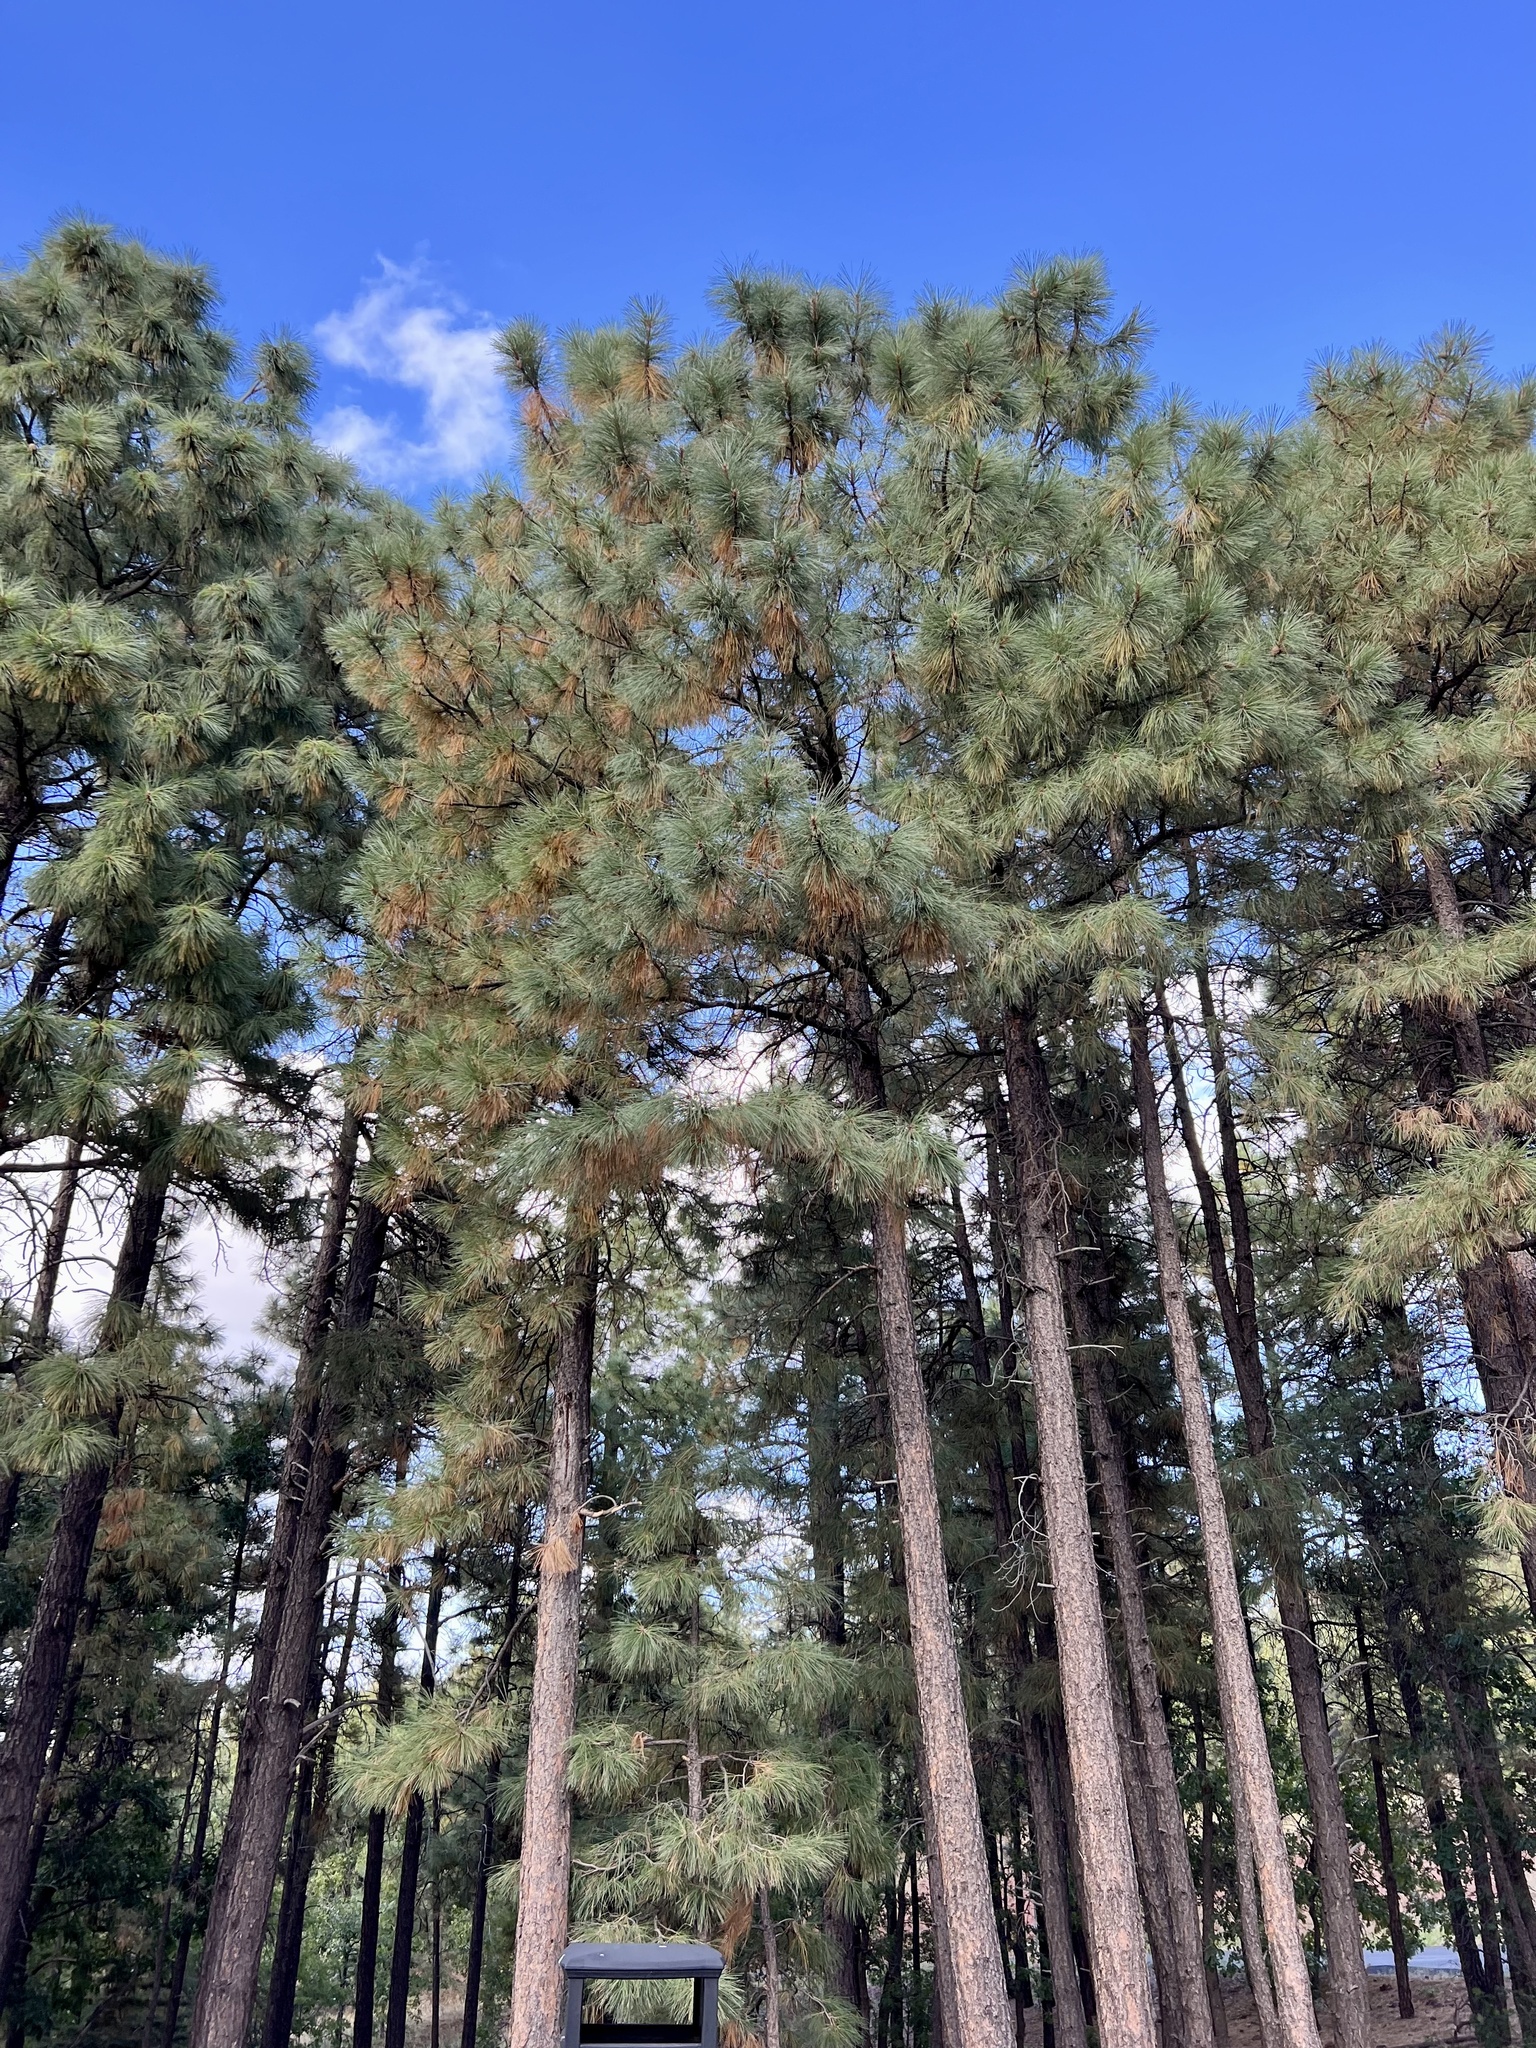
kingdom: Plantae
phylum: Tracheophyta
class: Pinopsida
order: Pinales
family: Pinaceae
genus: Pinus
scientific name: Pinus ponderosa
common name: Western yellow-pine
